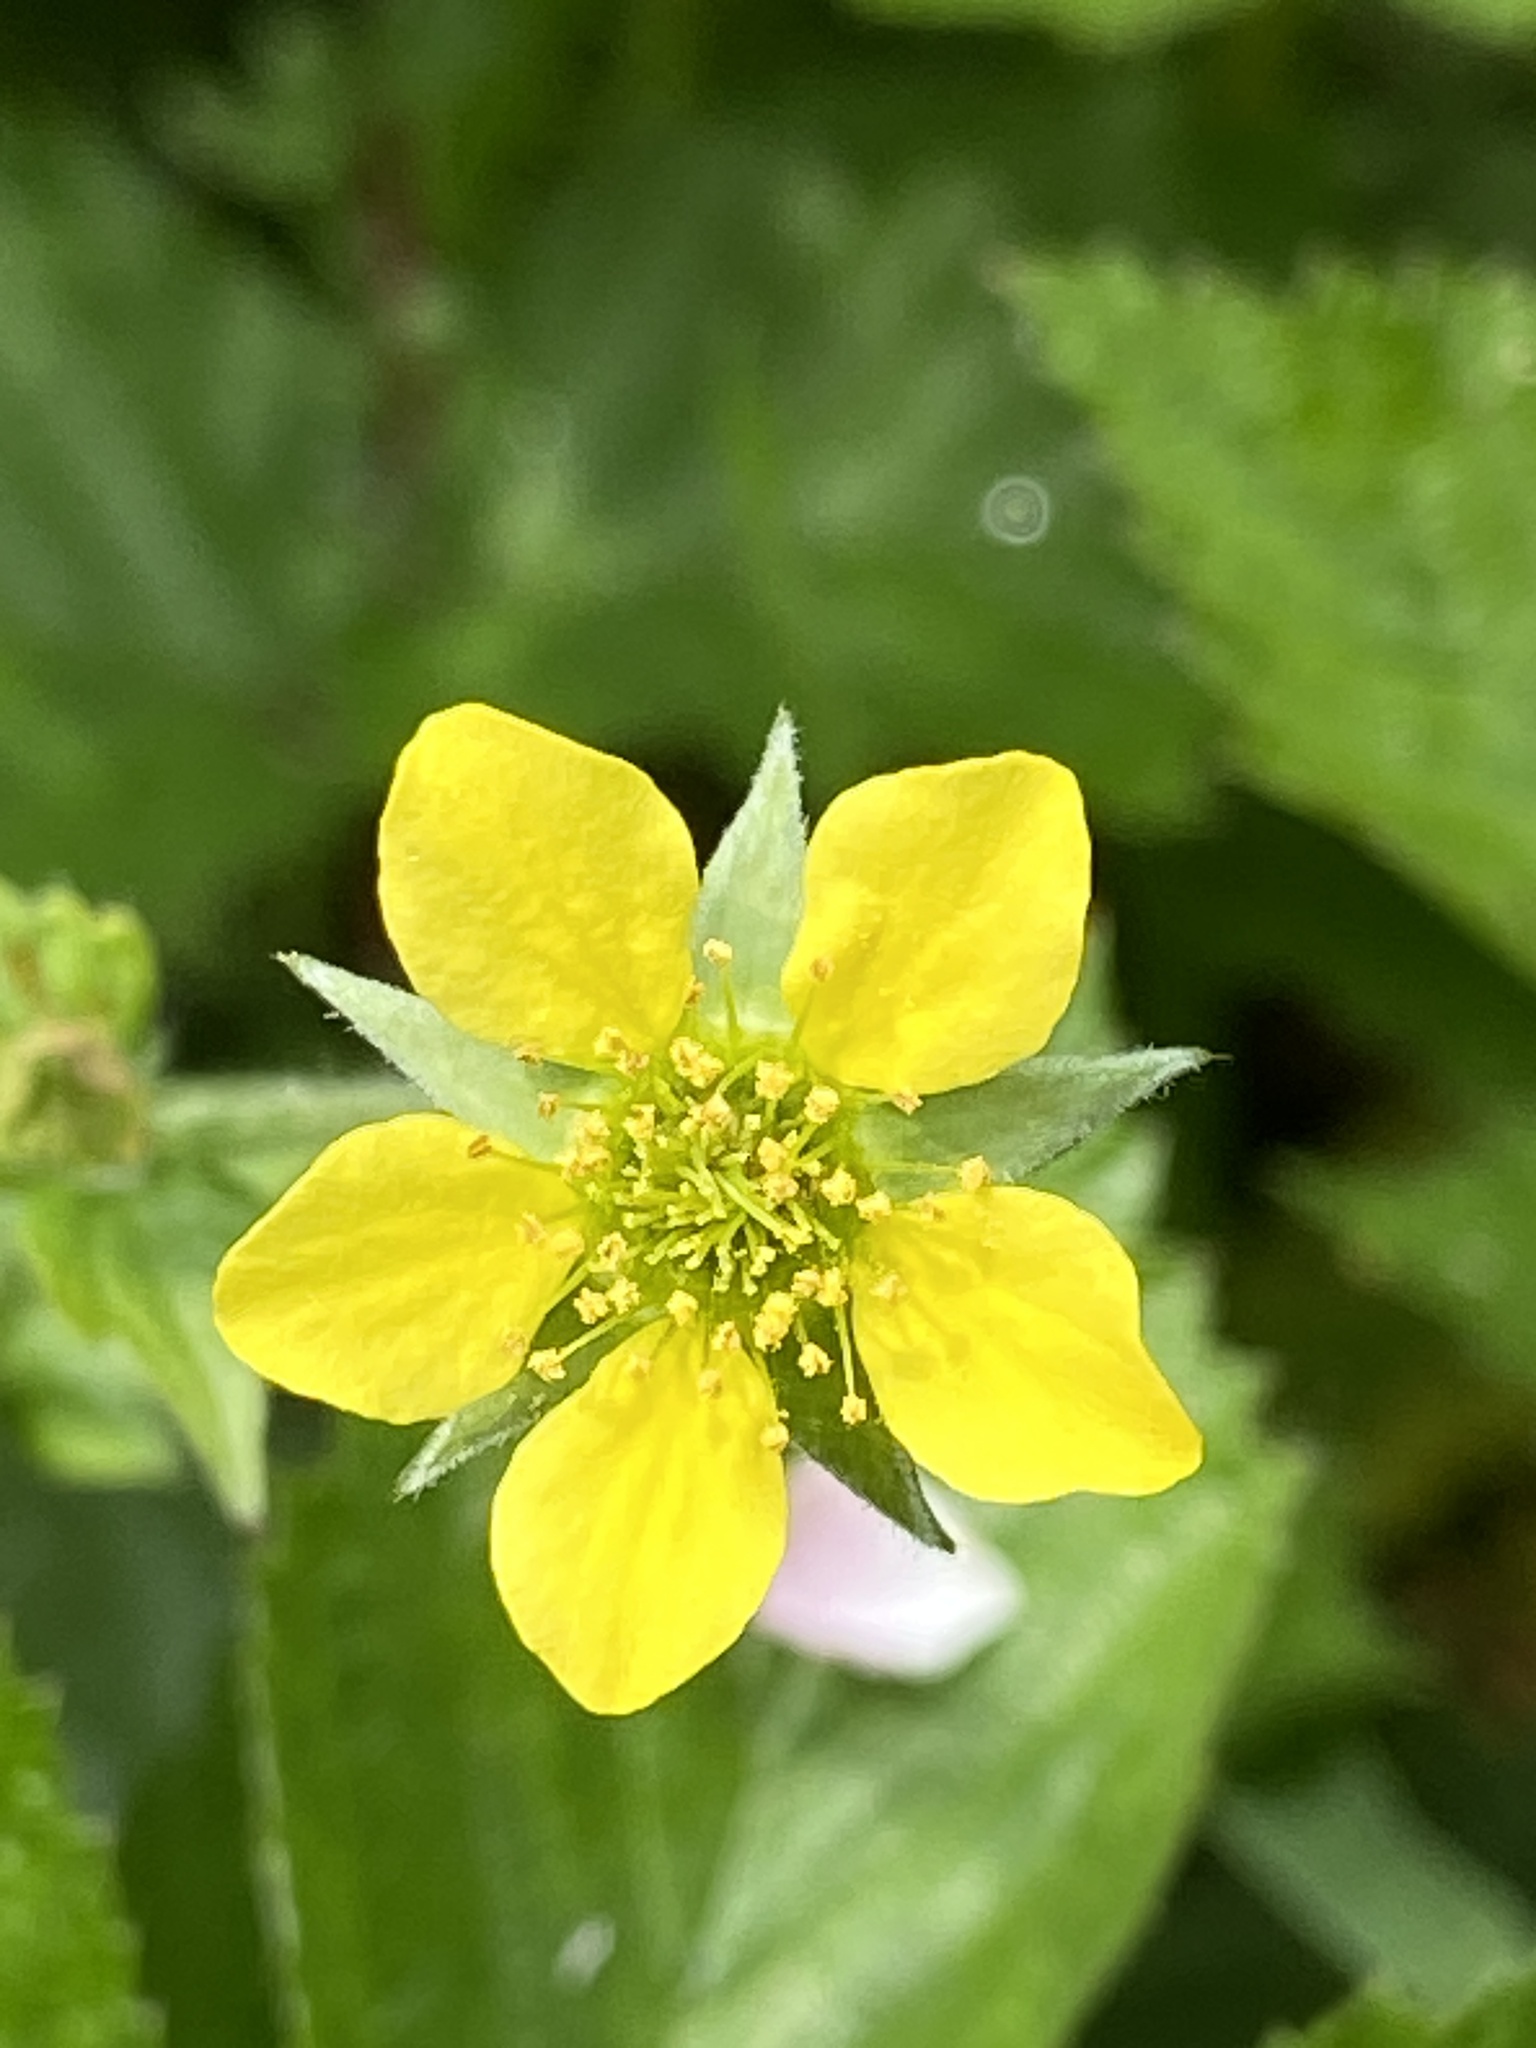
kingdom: Plantae
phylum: Tracheophyta
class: Magnoliopsida
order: Rosales
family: Rosaceae
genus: Geum
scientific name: Geum urbanum
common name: Wood avens
